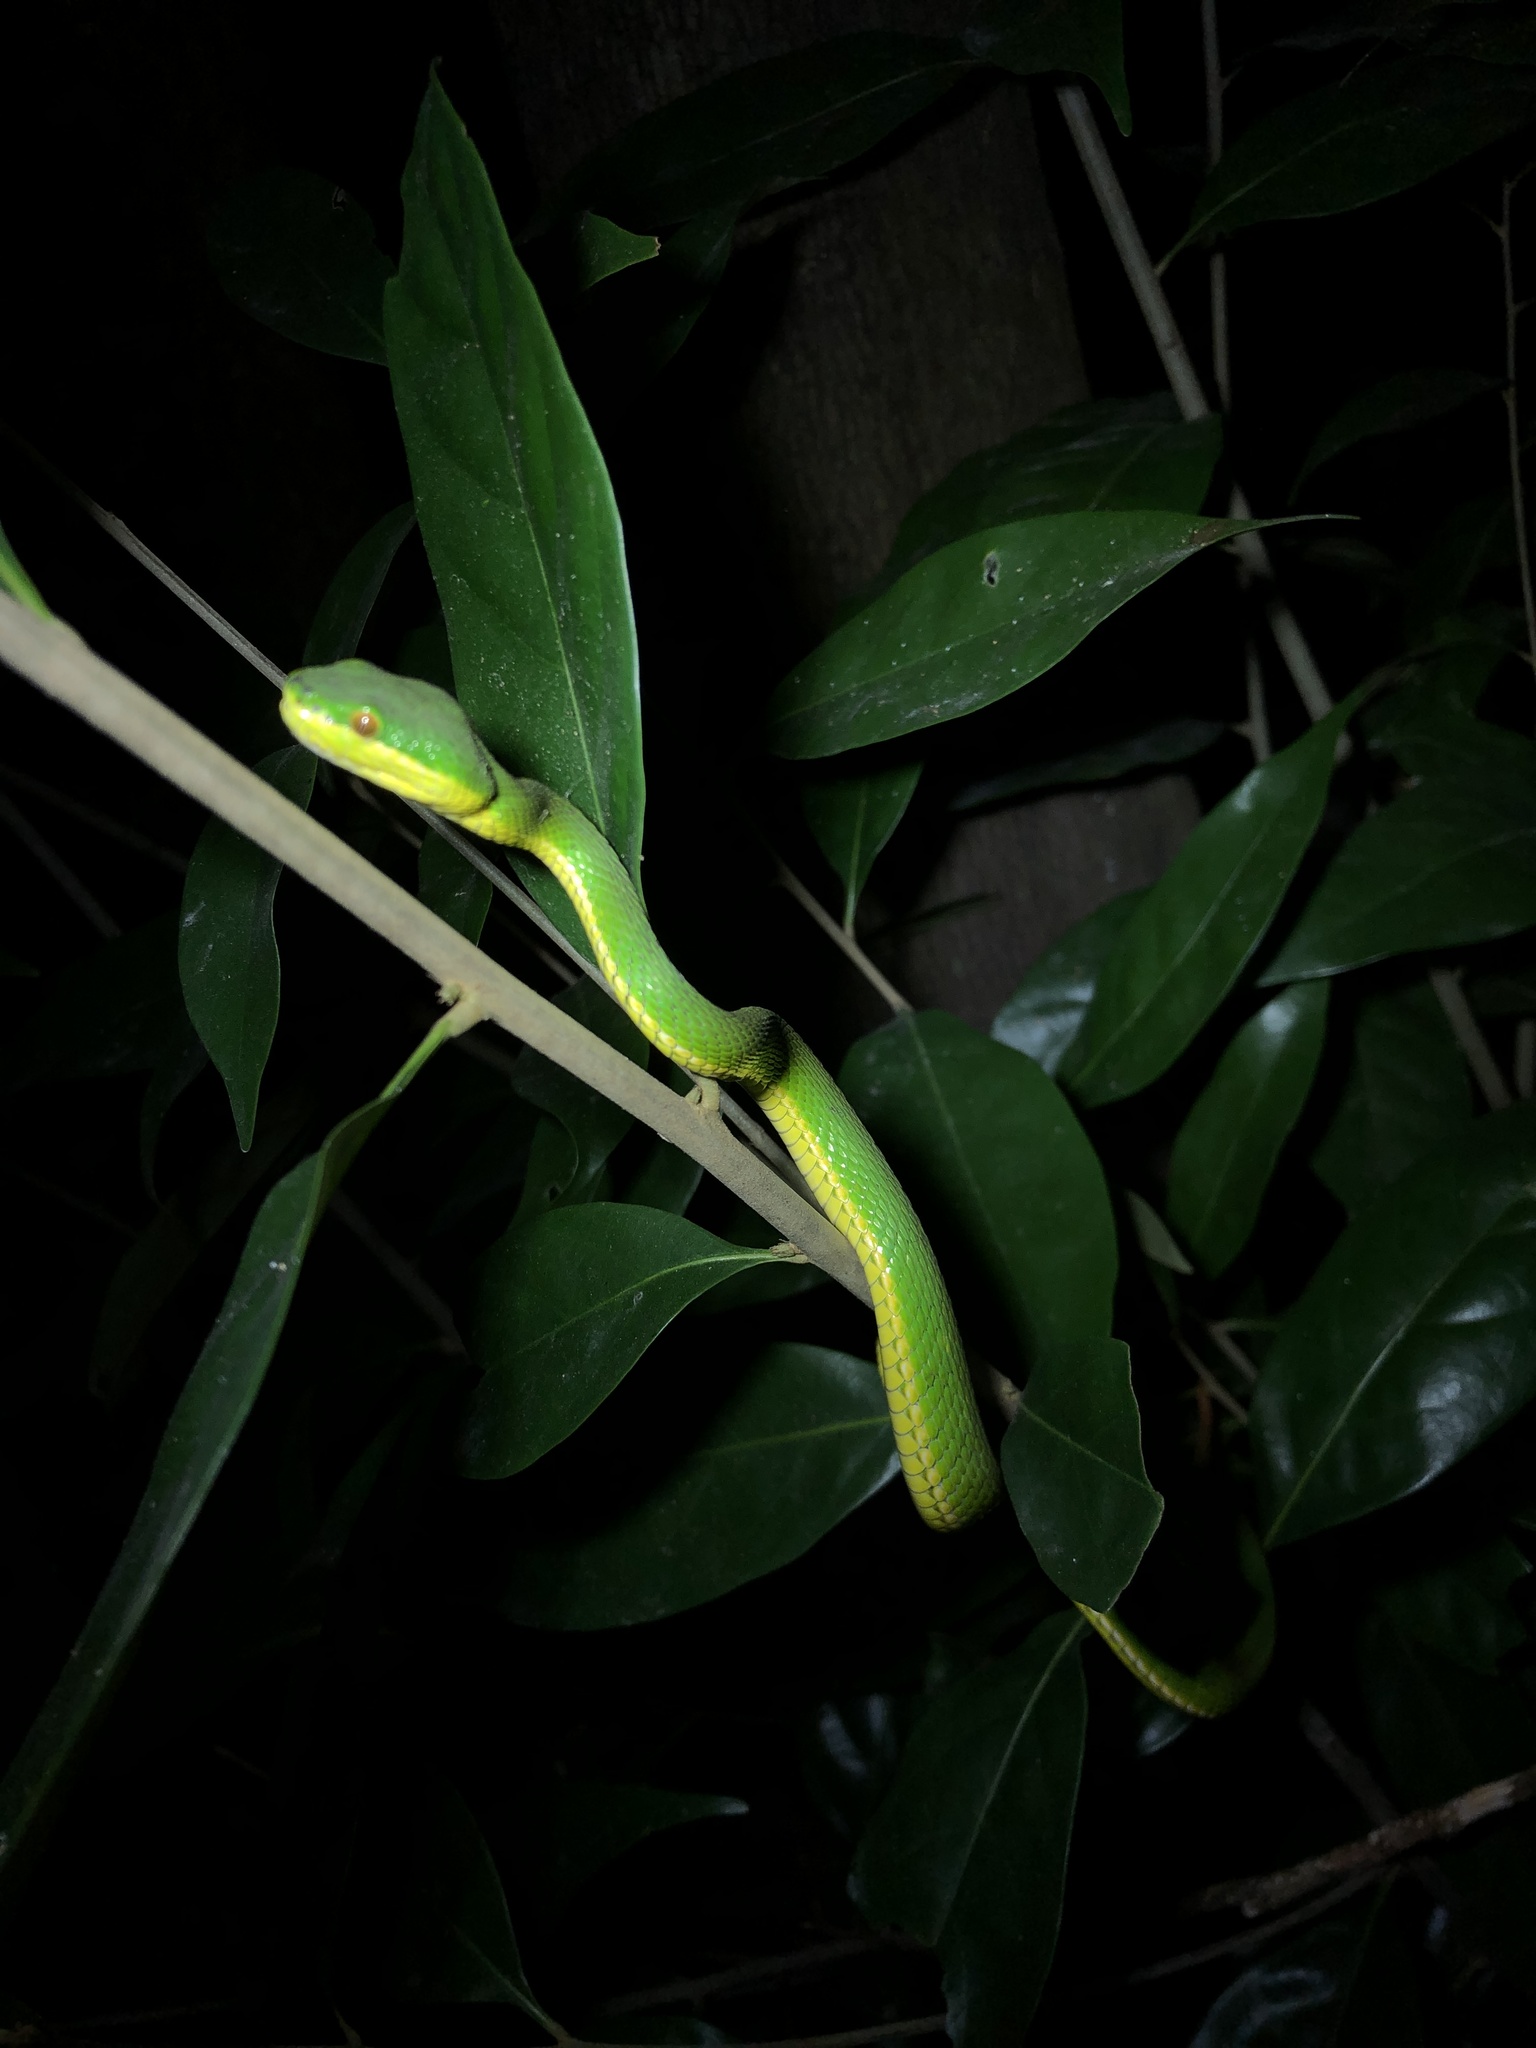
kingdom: Animalia
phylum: Chordata
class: Squamata
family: Viperidae
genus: Trimeresurus
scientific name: Trimeresurus albolabris
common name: White-lipped pitviper
